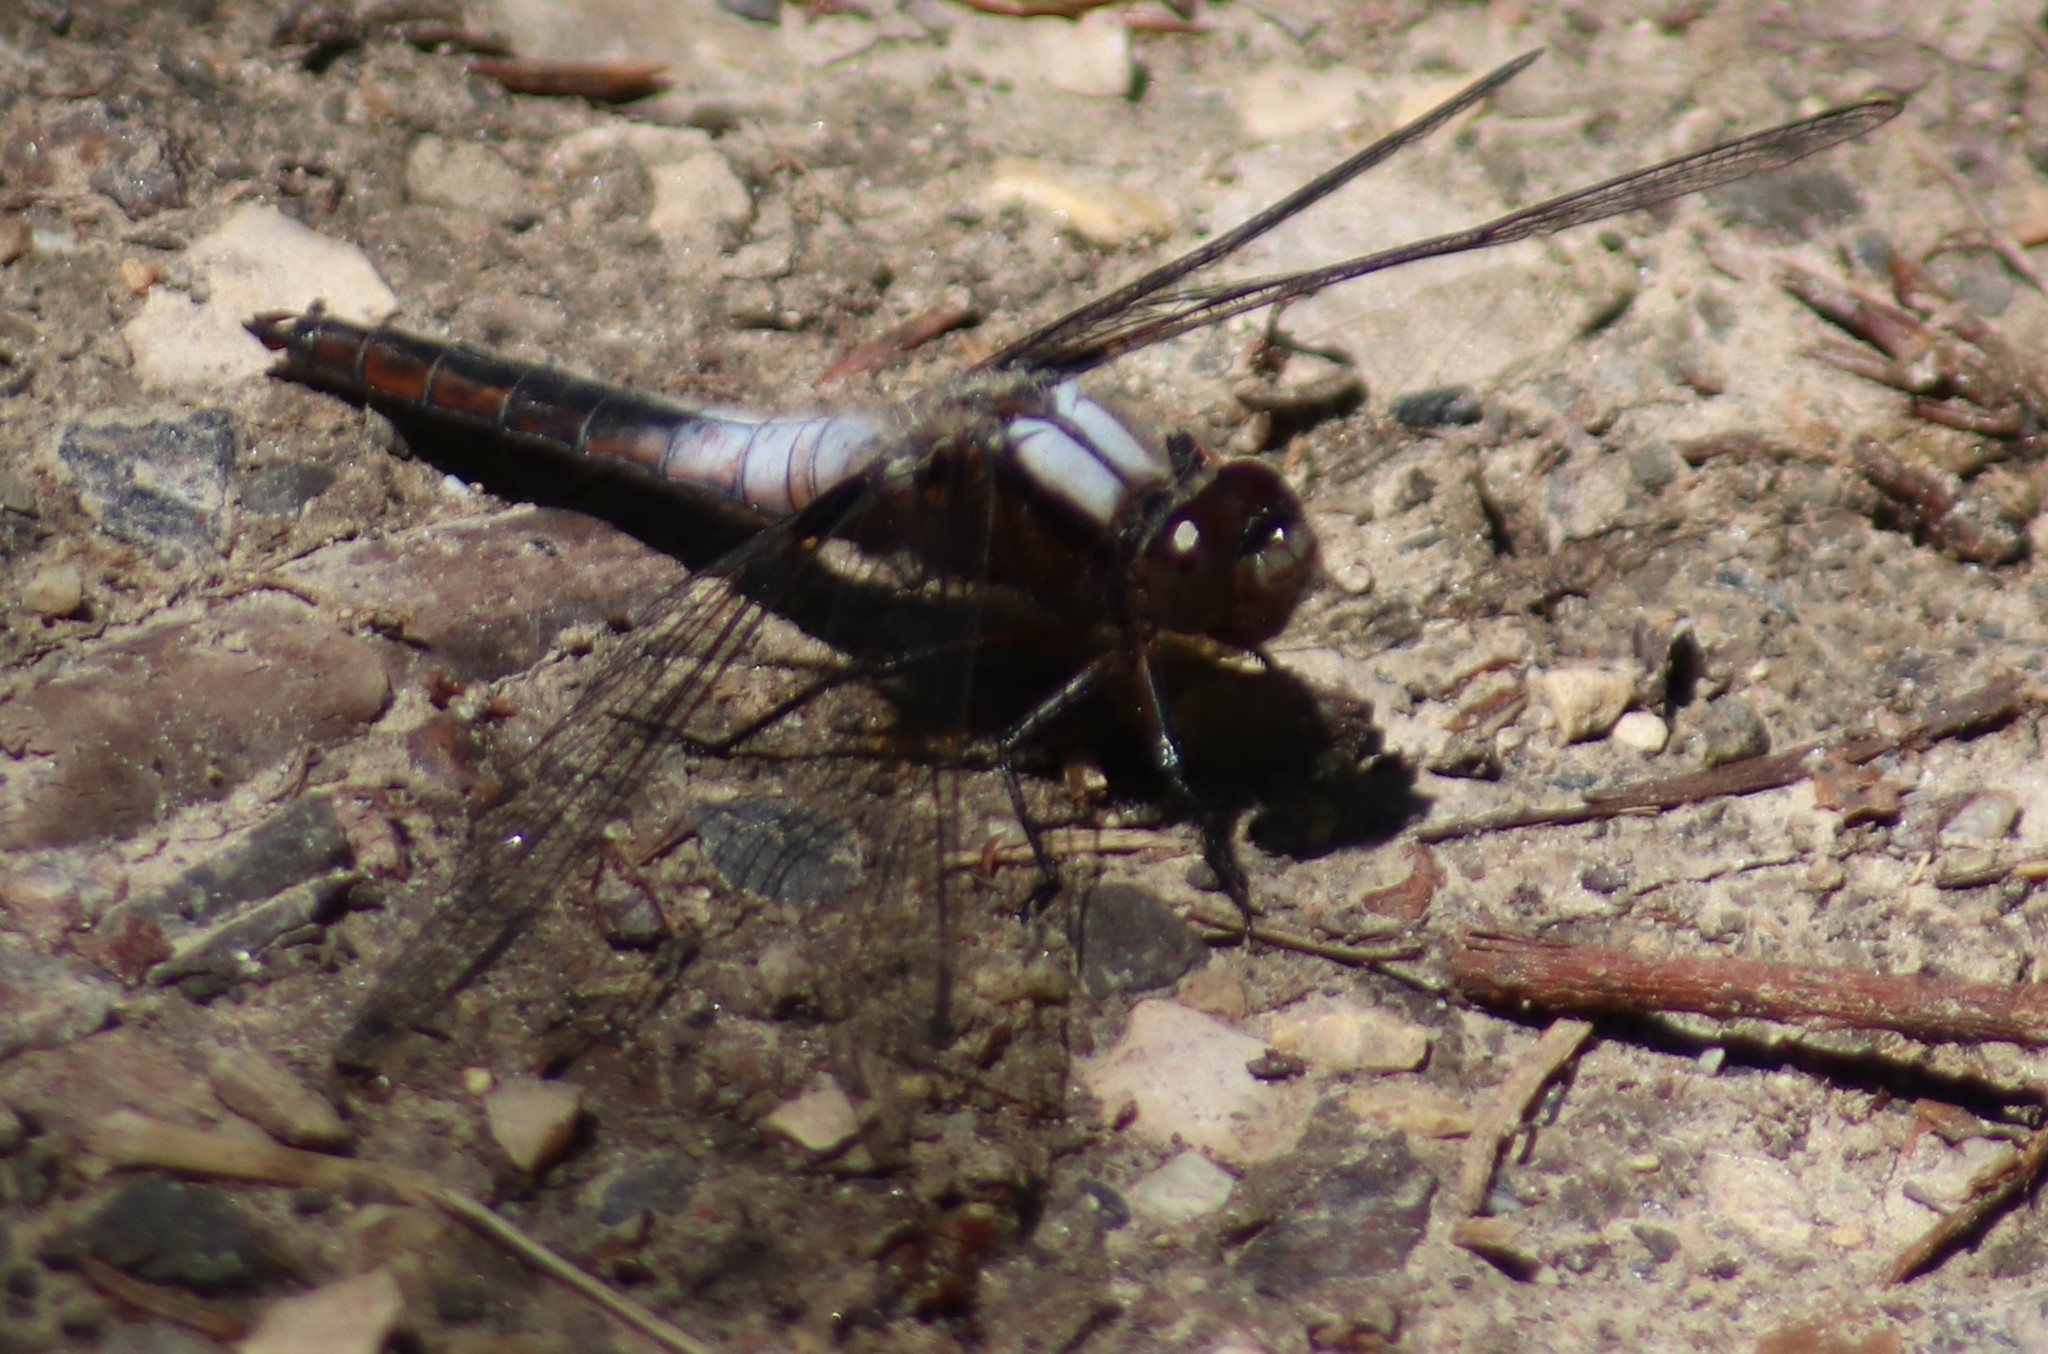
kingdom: Animalia
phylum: Arthropoda
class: Insecta
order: Odonata
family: Libellulidae
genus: Ladona
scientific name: Ladona julia
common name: Chalk-fronted corporal
